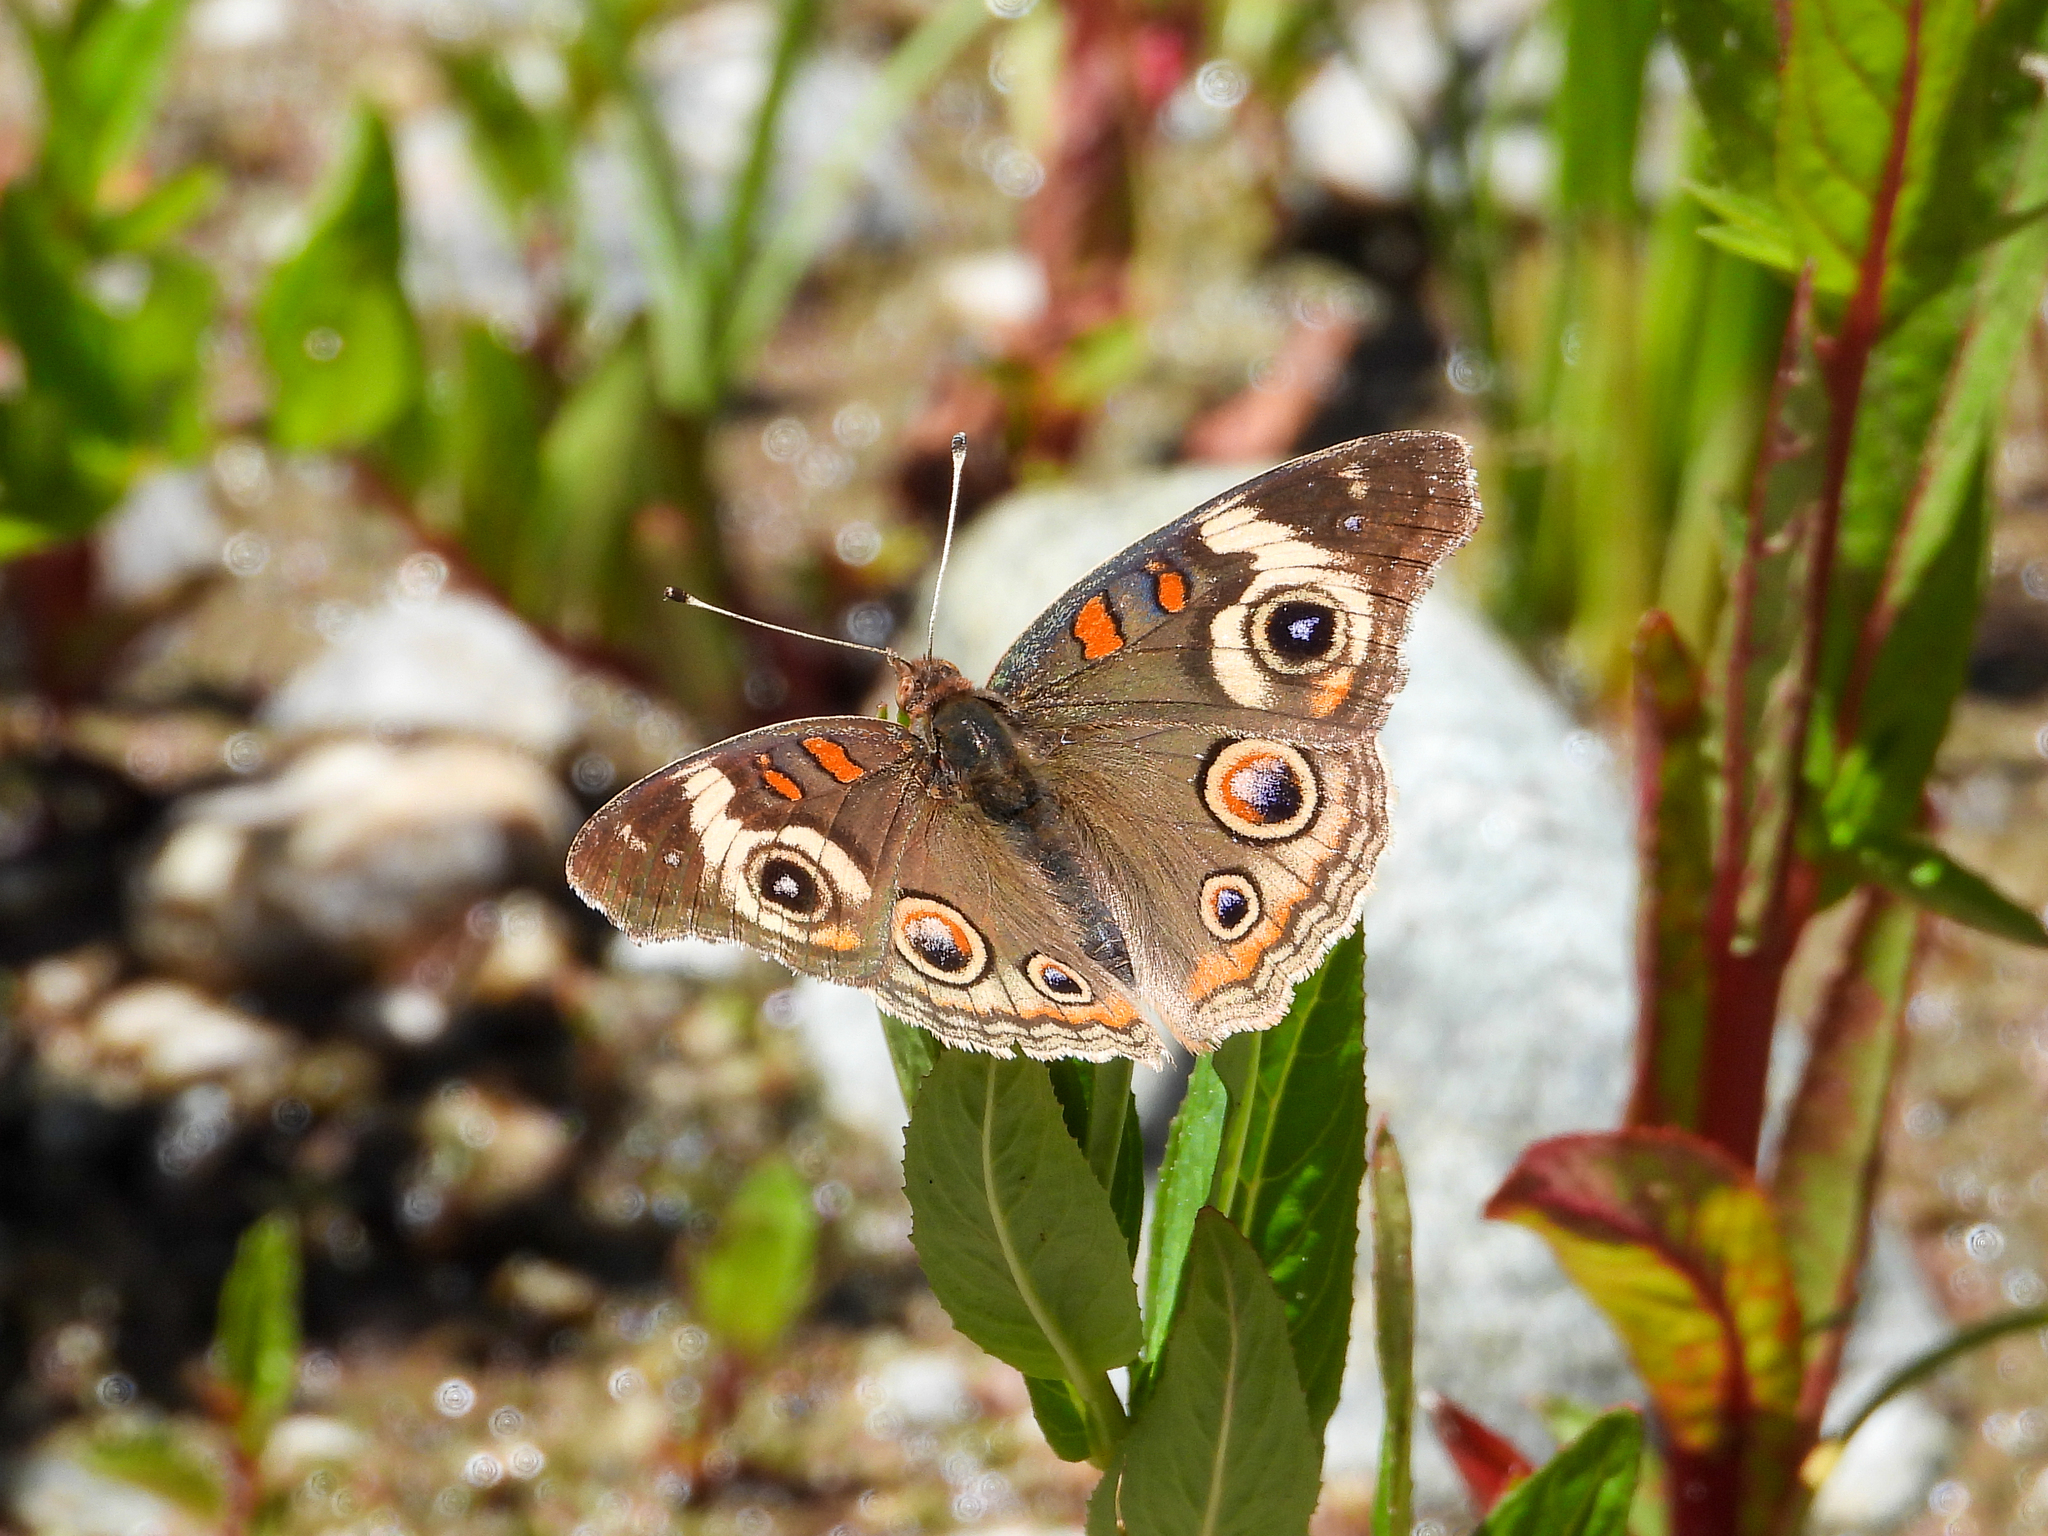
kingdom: Animalia
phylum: Arthropoda
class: Insecta
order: Lepidoptera
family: Nymphalidae
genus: Junonia
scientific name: Junonia grisea
